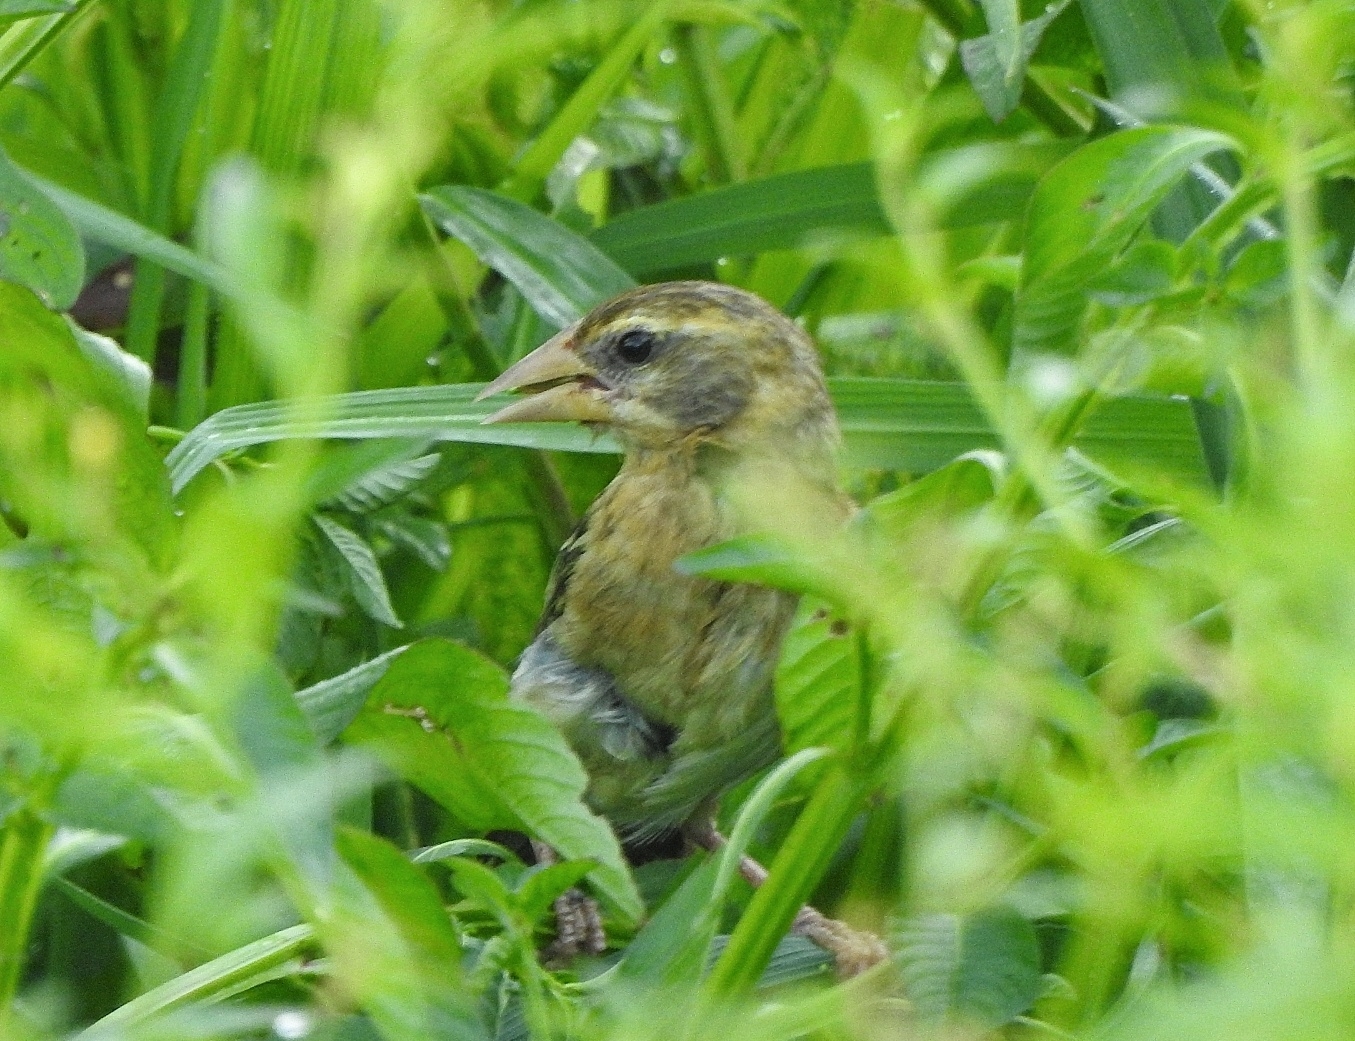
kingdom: Animalia
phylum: Chordata
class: Aves
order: Passeriformes
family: Ploceidae
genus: Ploceus
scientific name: Ploceus philippinus
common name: Baya weaver
